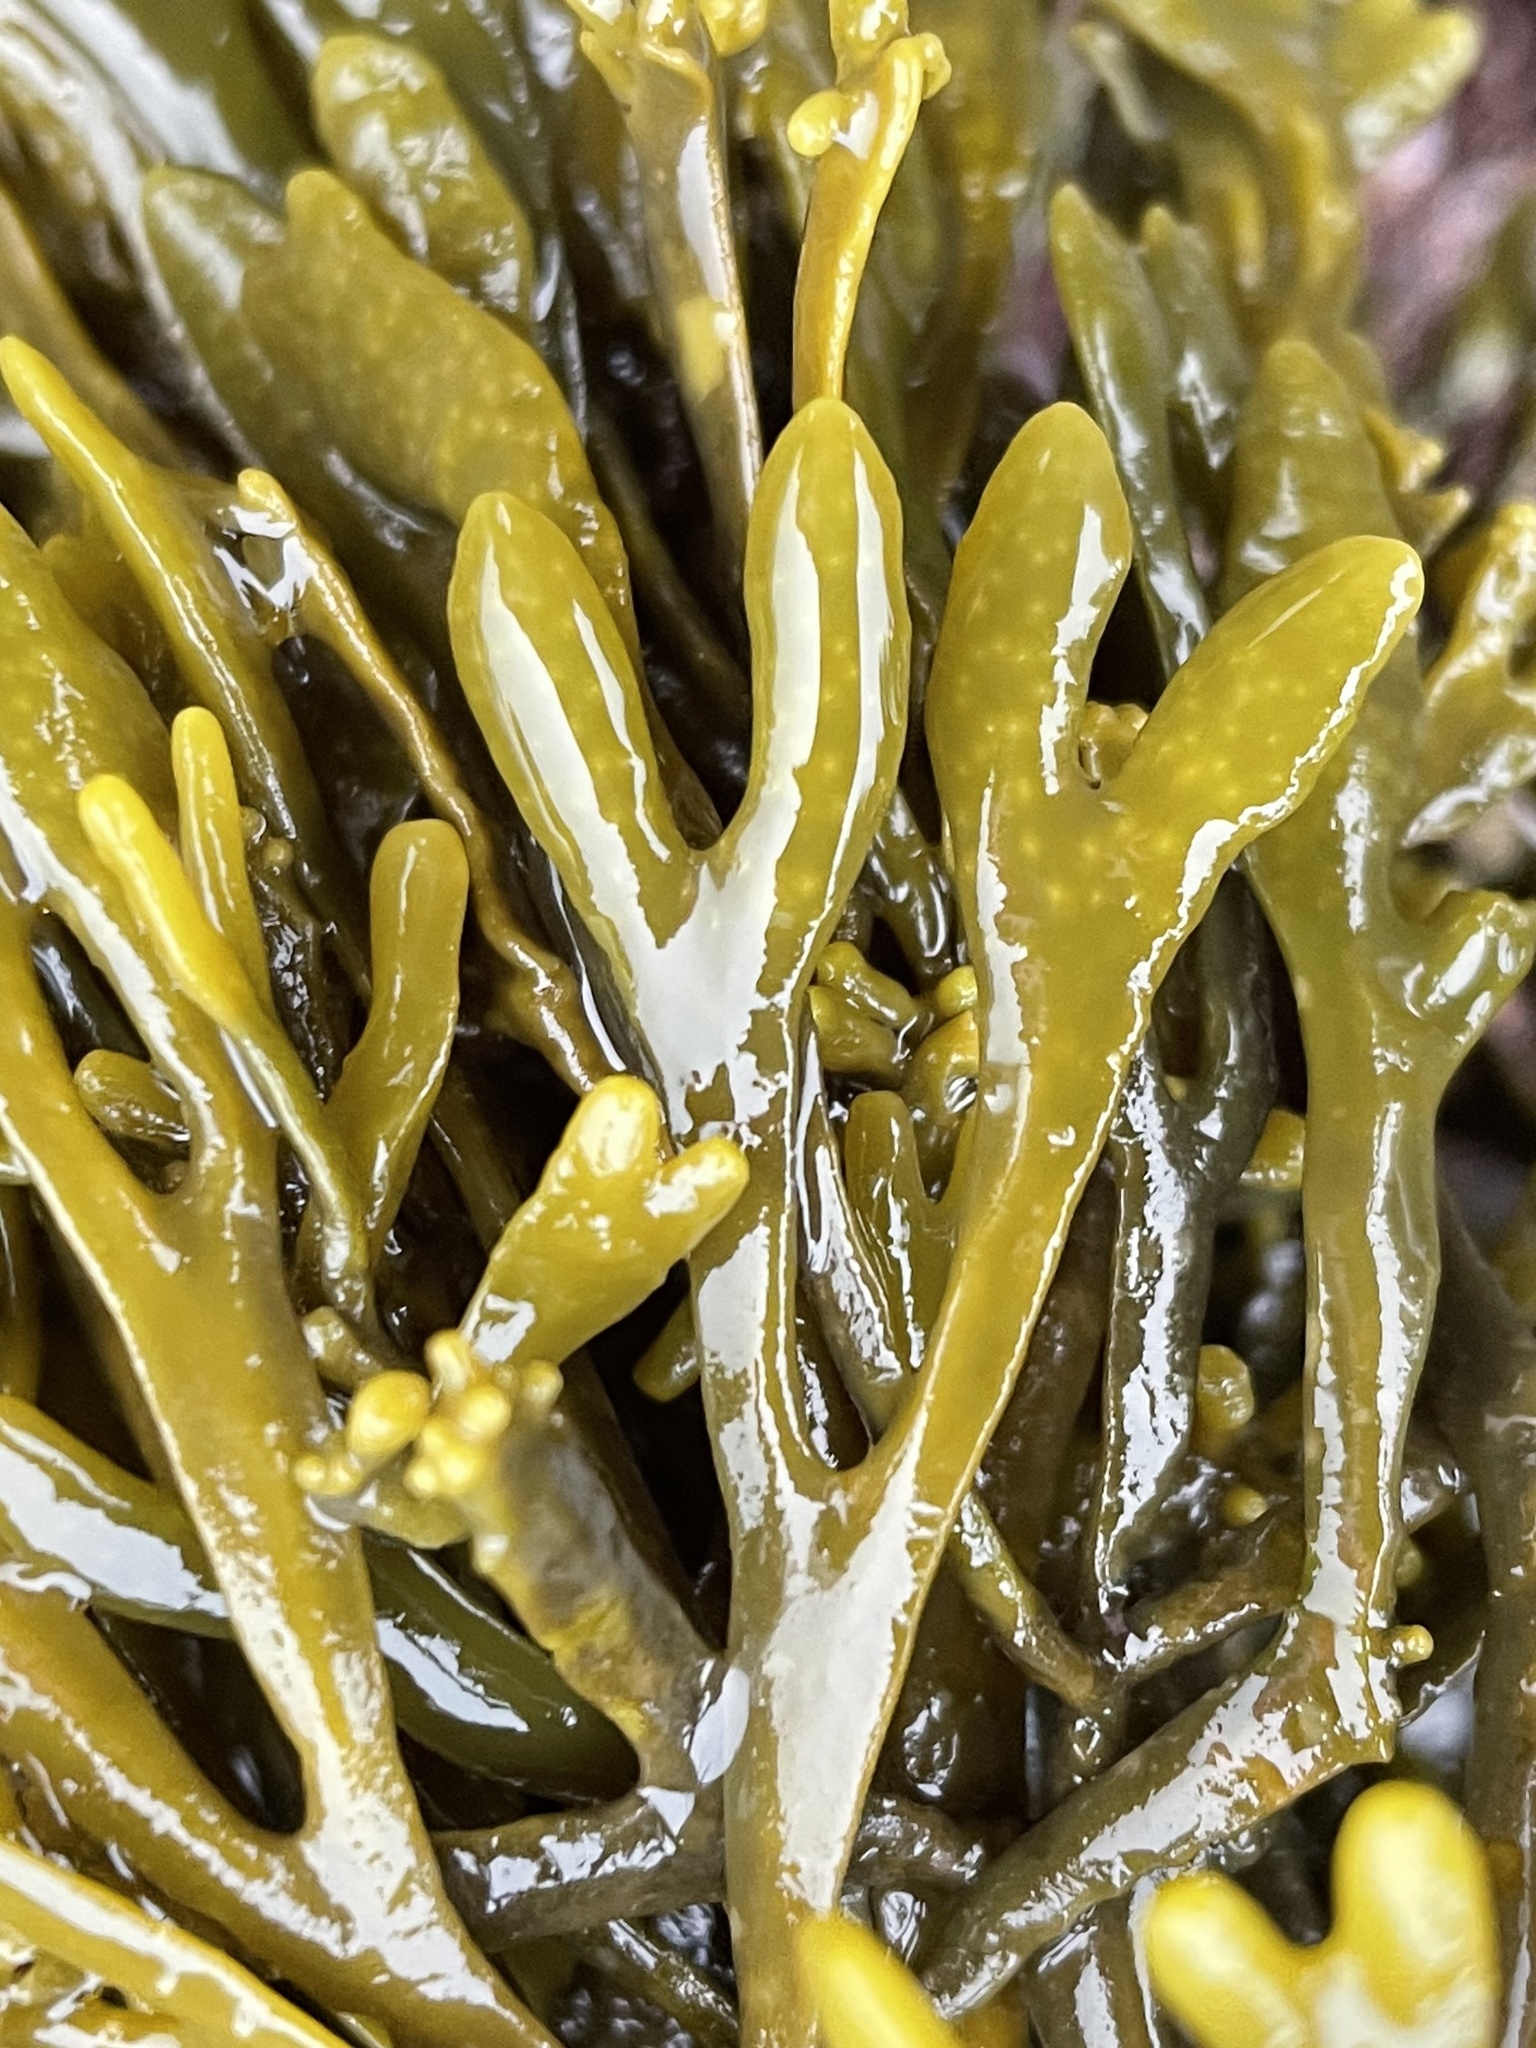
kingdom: Chromista
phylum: Ochrophyta
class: Phaeophyceae
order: Fucales
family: Fucaceae
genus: Silvetia
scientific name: Silvetia
